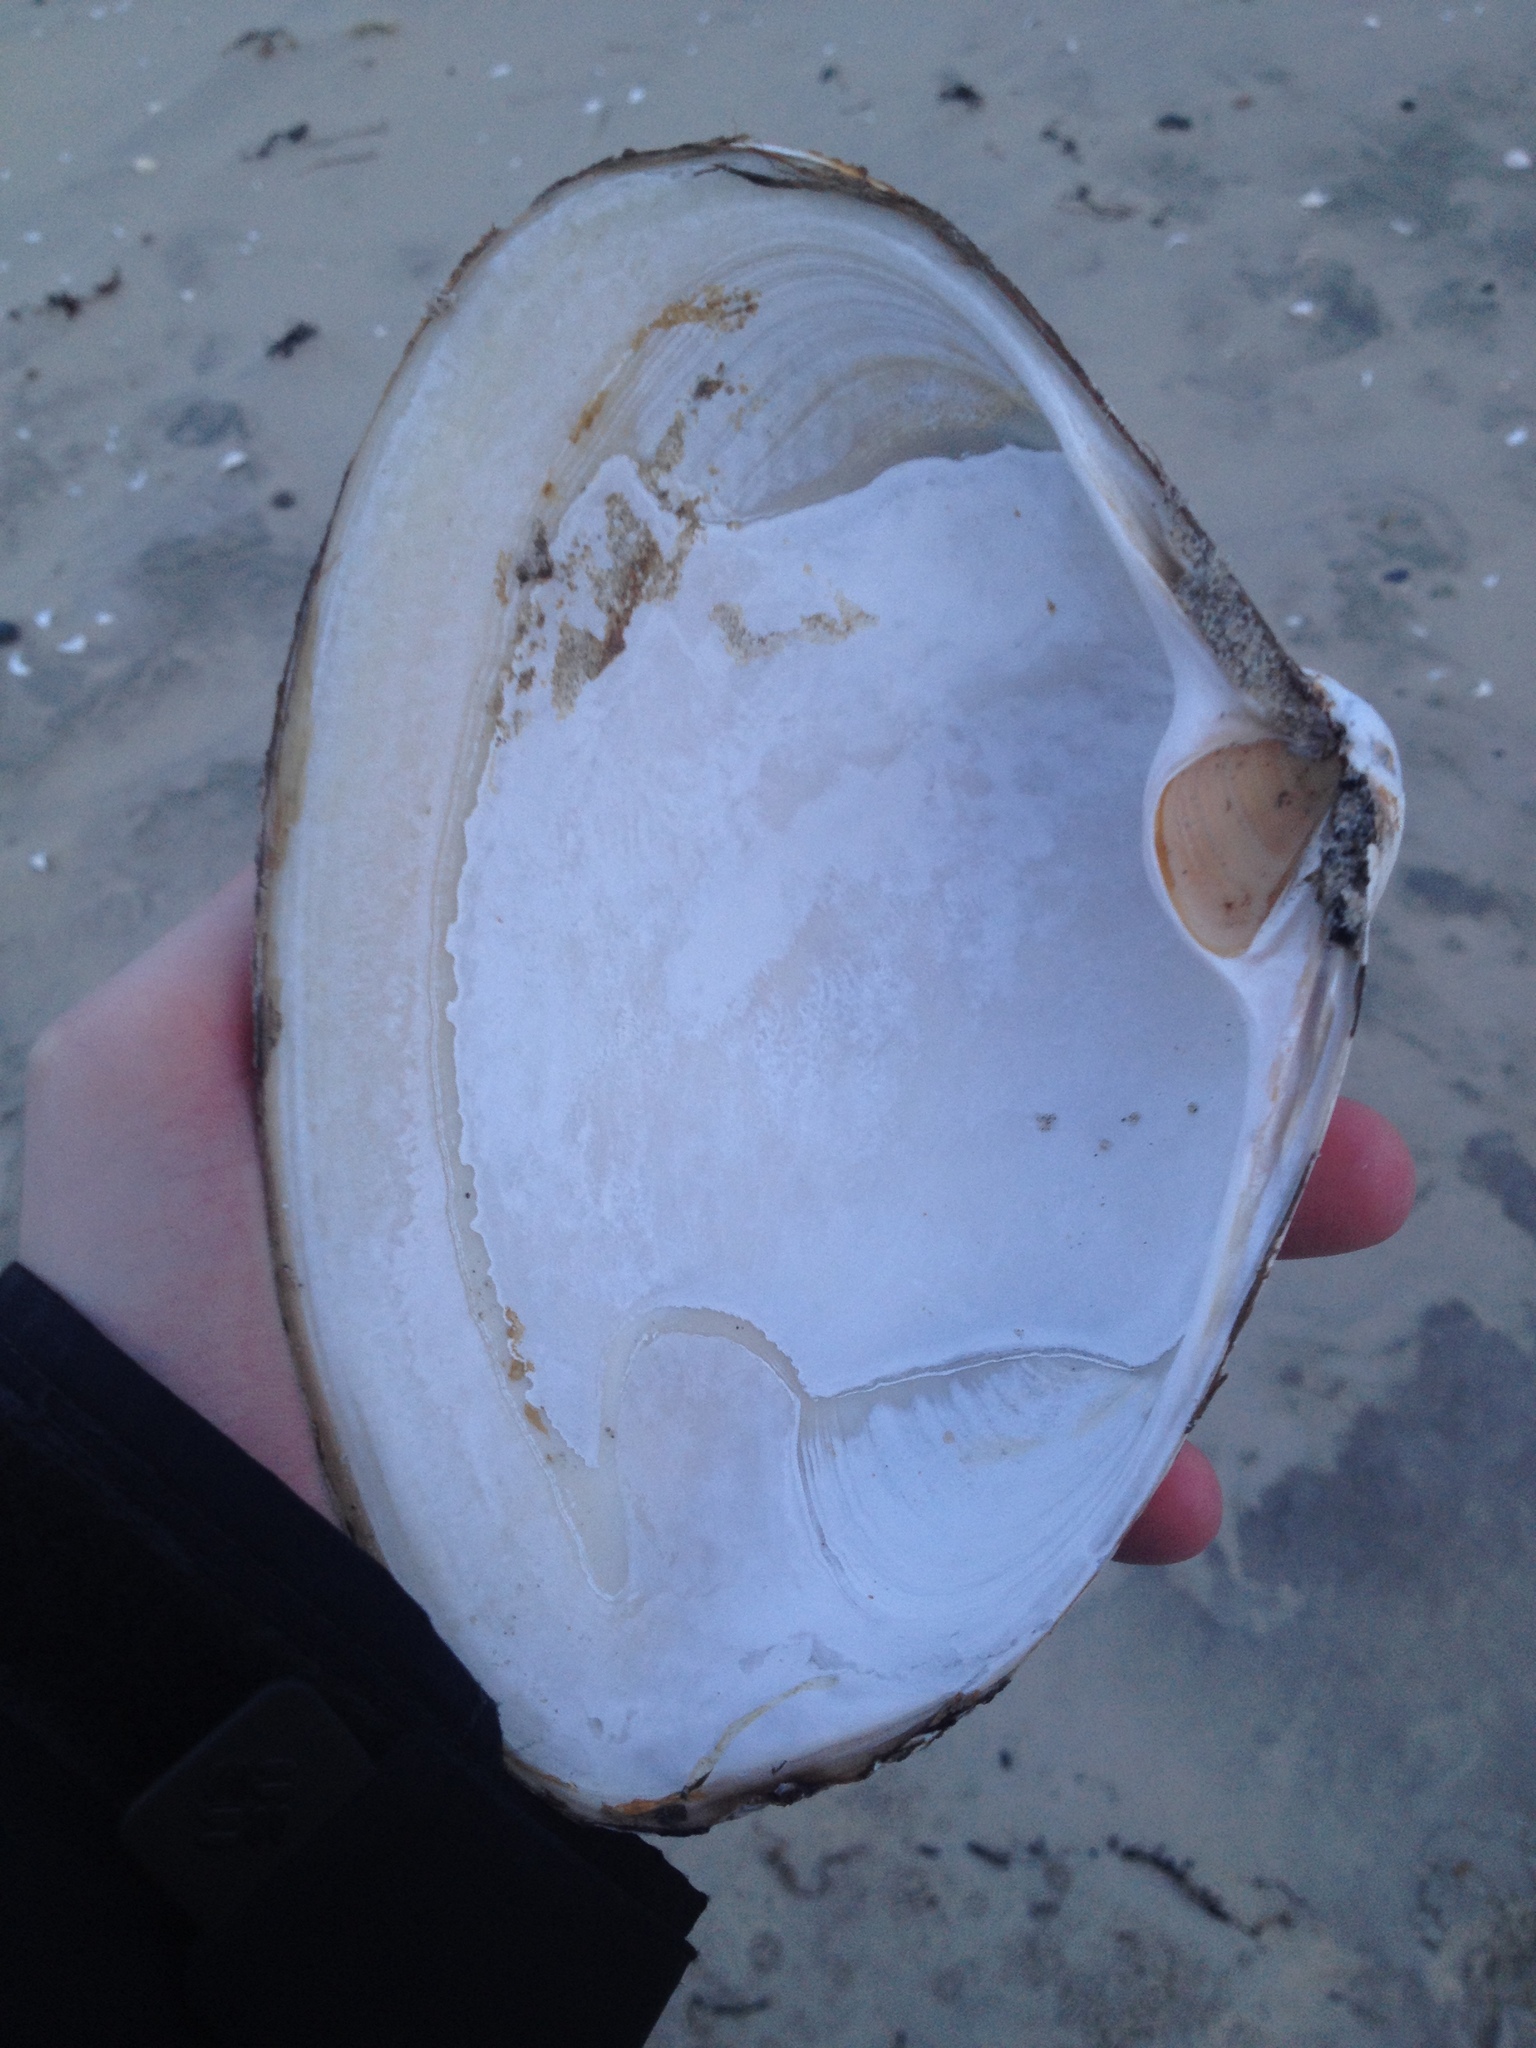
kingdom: Animalia
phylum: Mollusca
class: Bivalvia
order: Venerida
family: Mactridae
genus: Spisula
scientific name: Spisula solidissima
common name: Atlantic surf clam
